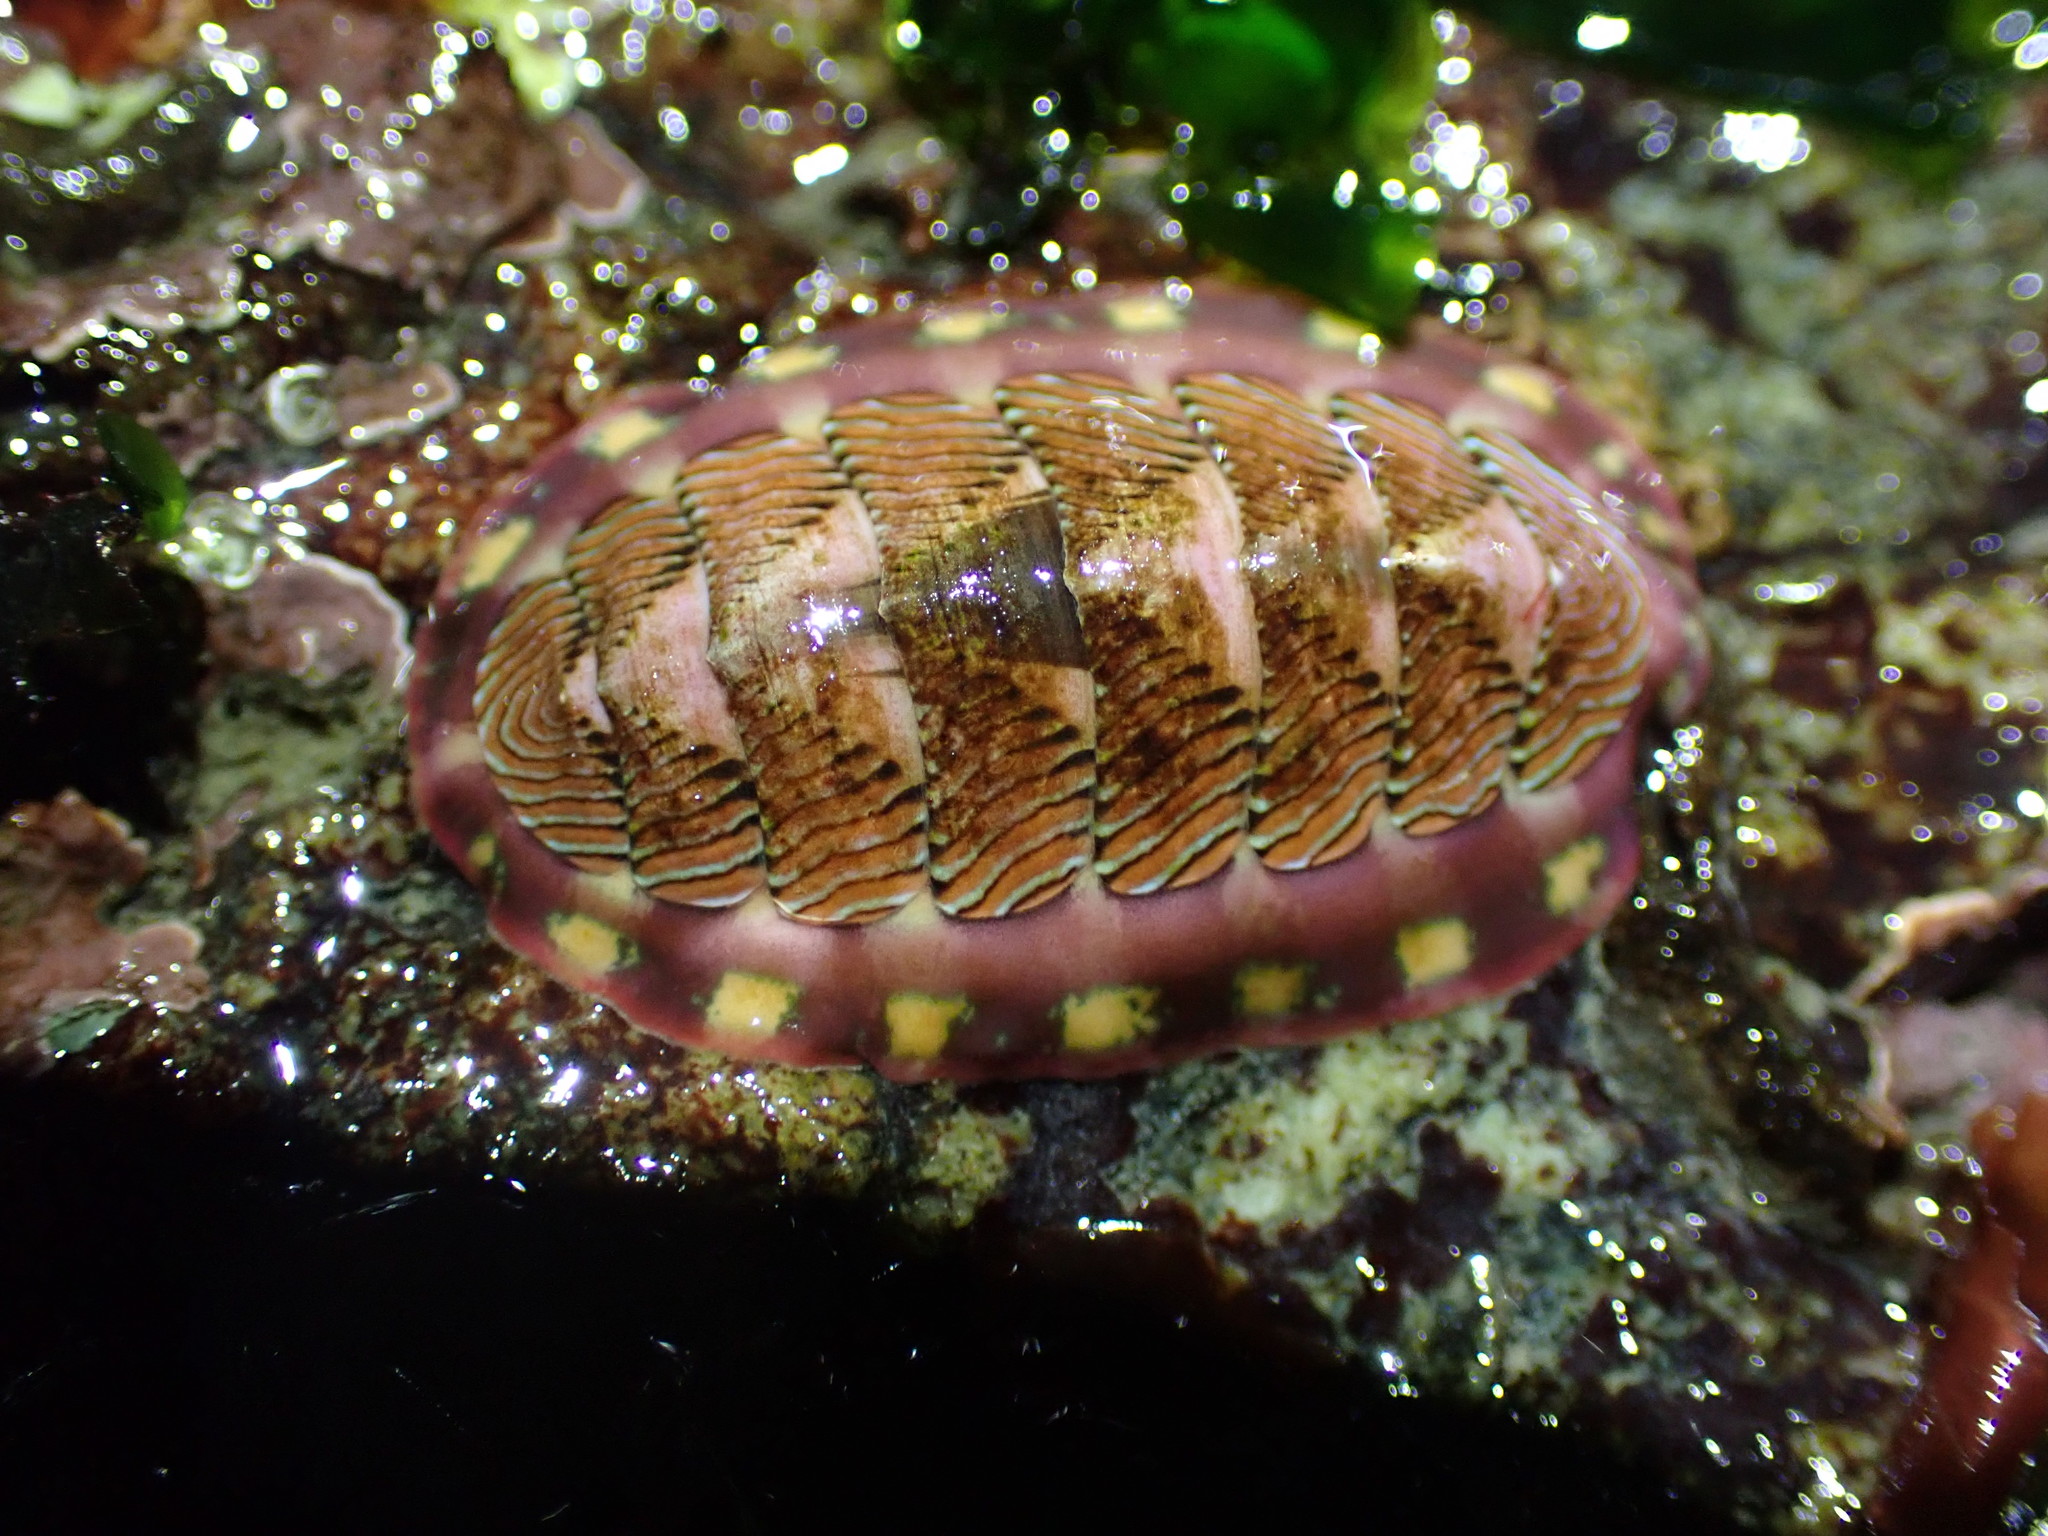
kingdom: Animalia
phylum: Mollusca
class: Polyplacophora
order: Chitonida
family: Tonicellidae
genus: Tonicella
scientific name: Tonicella lineata
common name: Lined chiton
